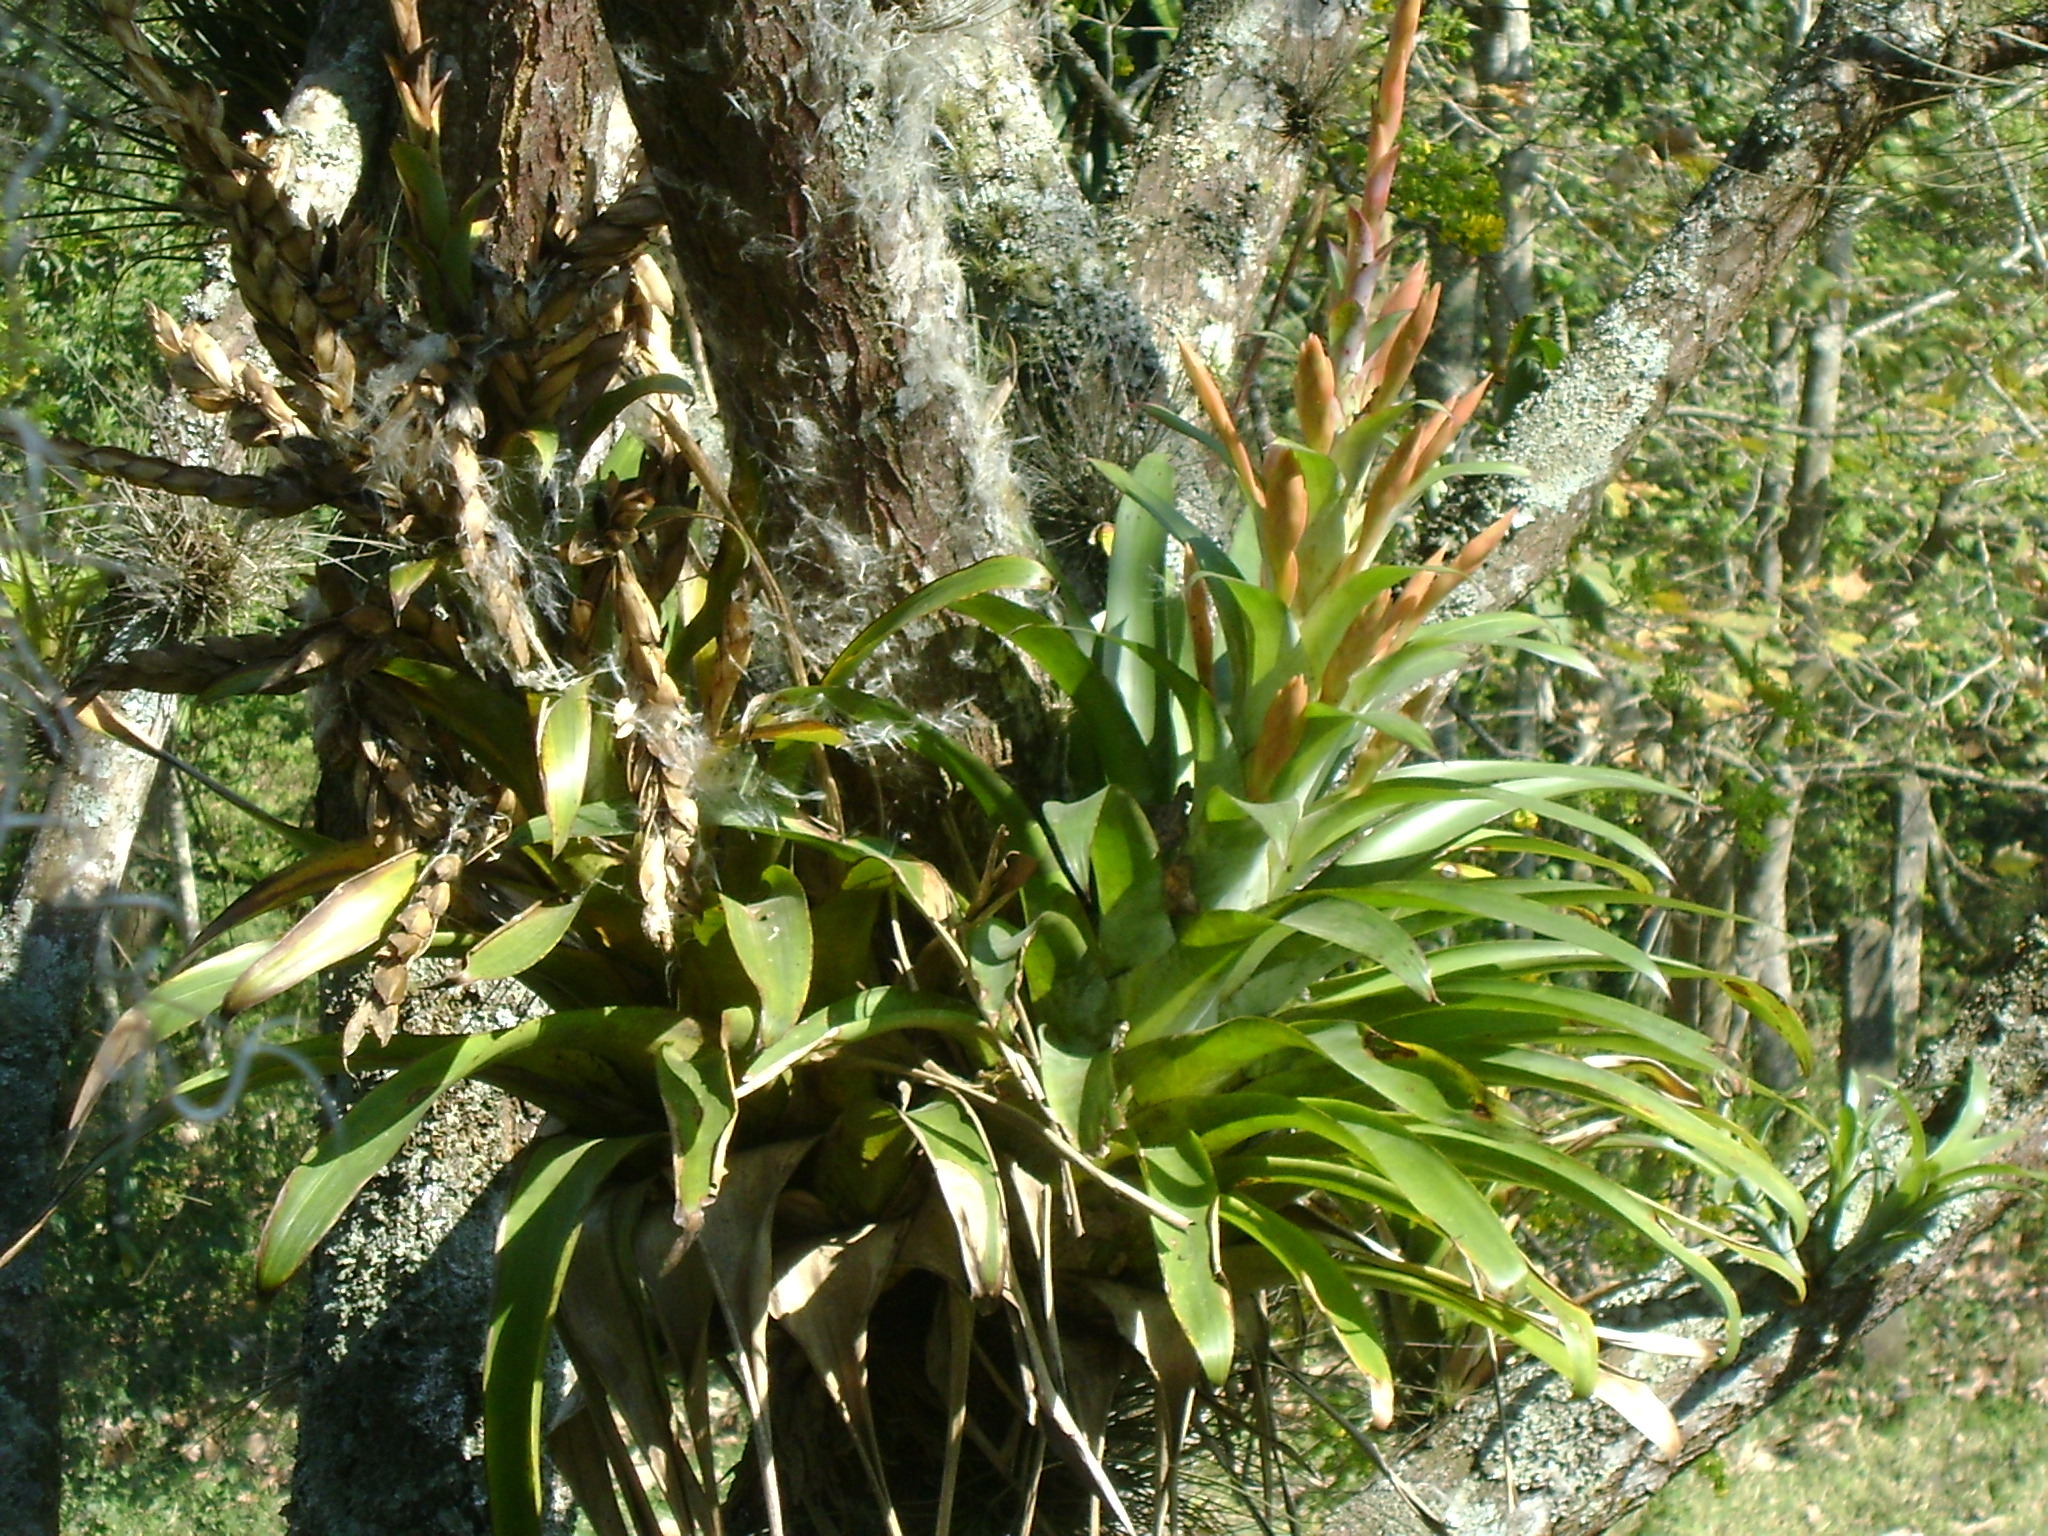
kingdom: Plantae
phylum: Tracheophyta
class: Liliopsida
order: Poales
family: Bromeliaceae
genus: Tillandsia
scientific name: Tillandsia deppeana
